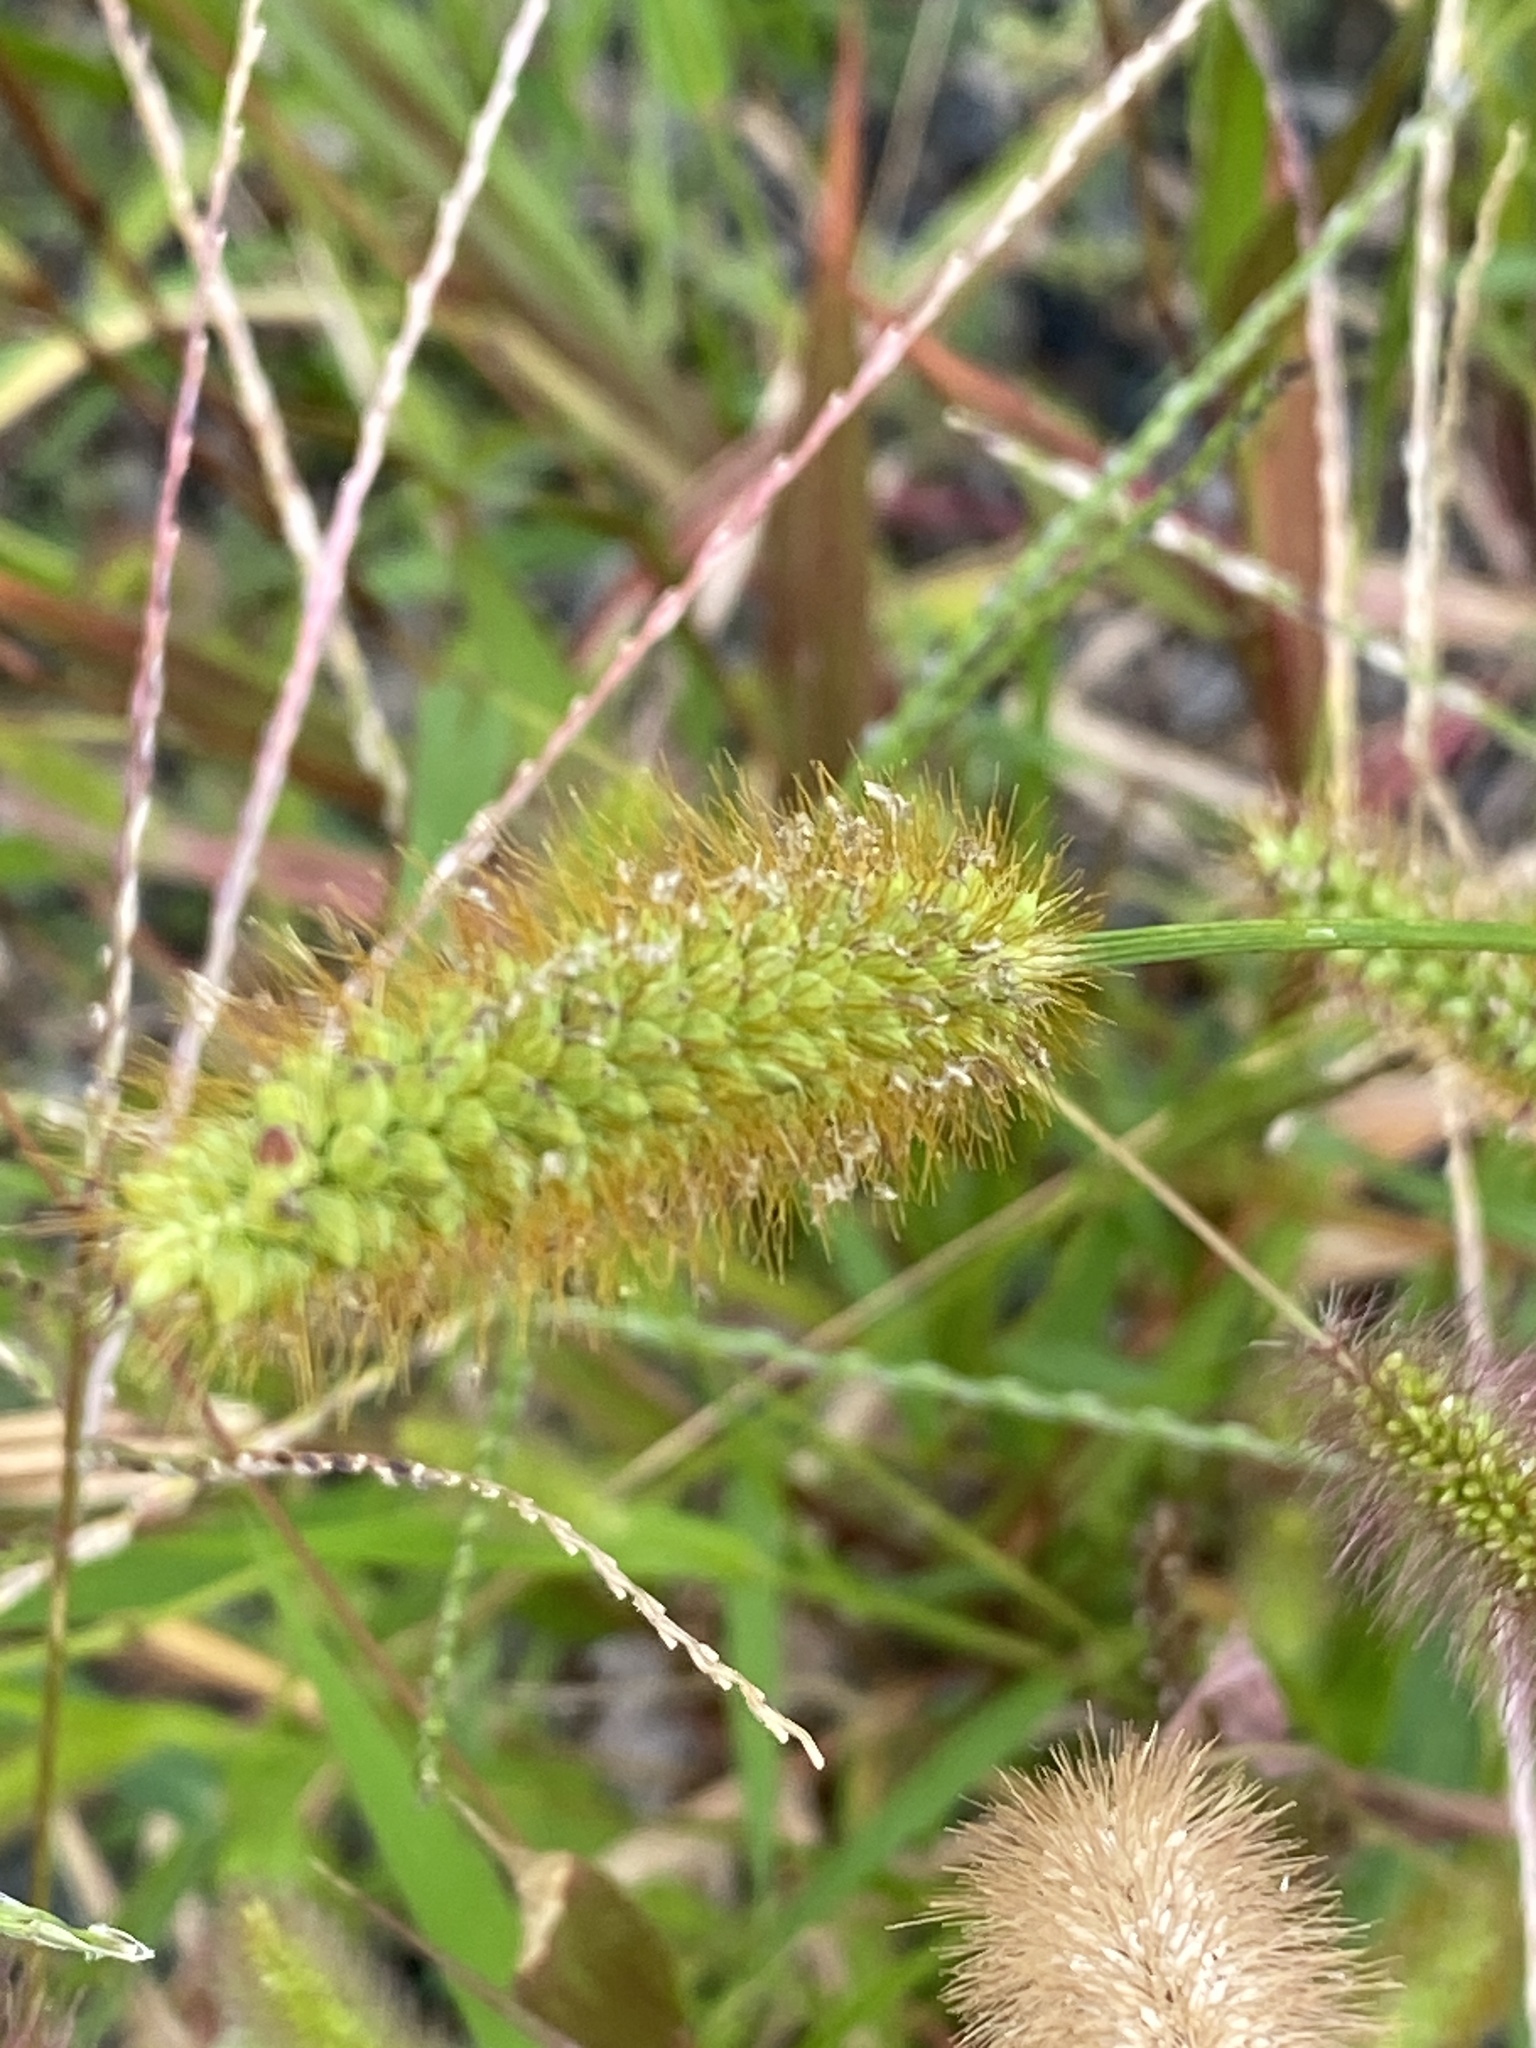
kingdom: Plantae
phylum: Tracheophyta
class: Liliopsida
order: Poales
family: Poaceae
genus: Setaria
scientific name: Setaria pumila
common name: Yellow bristle-grass
